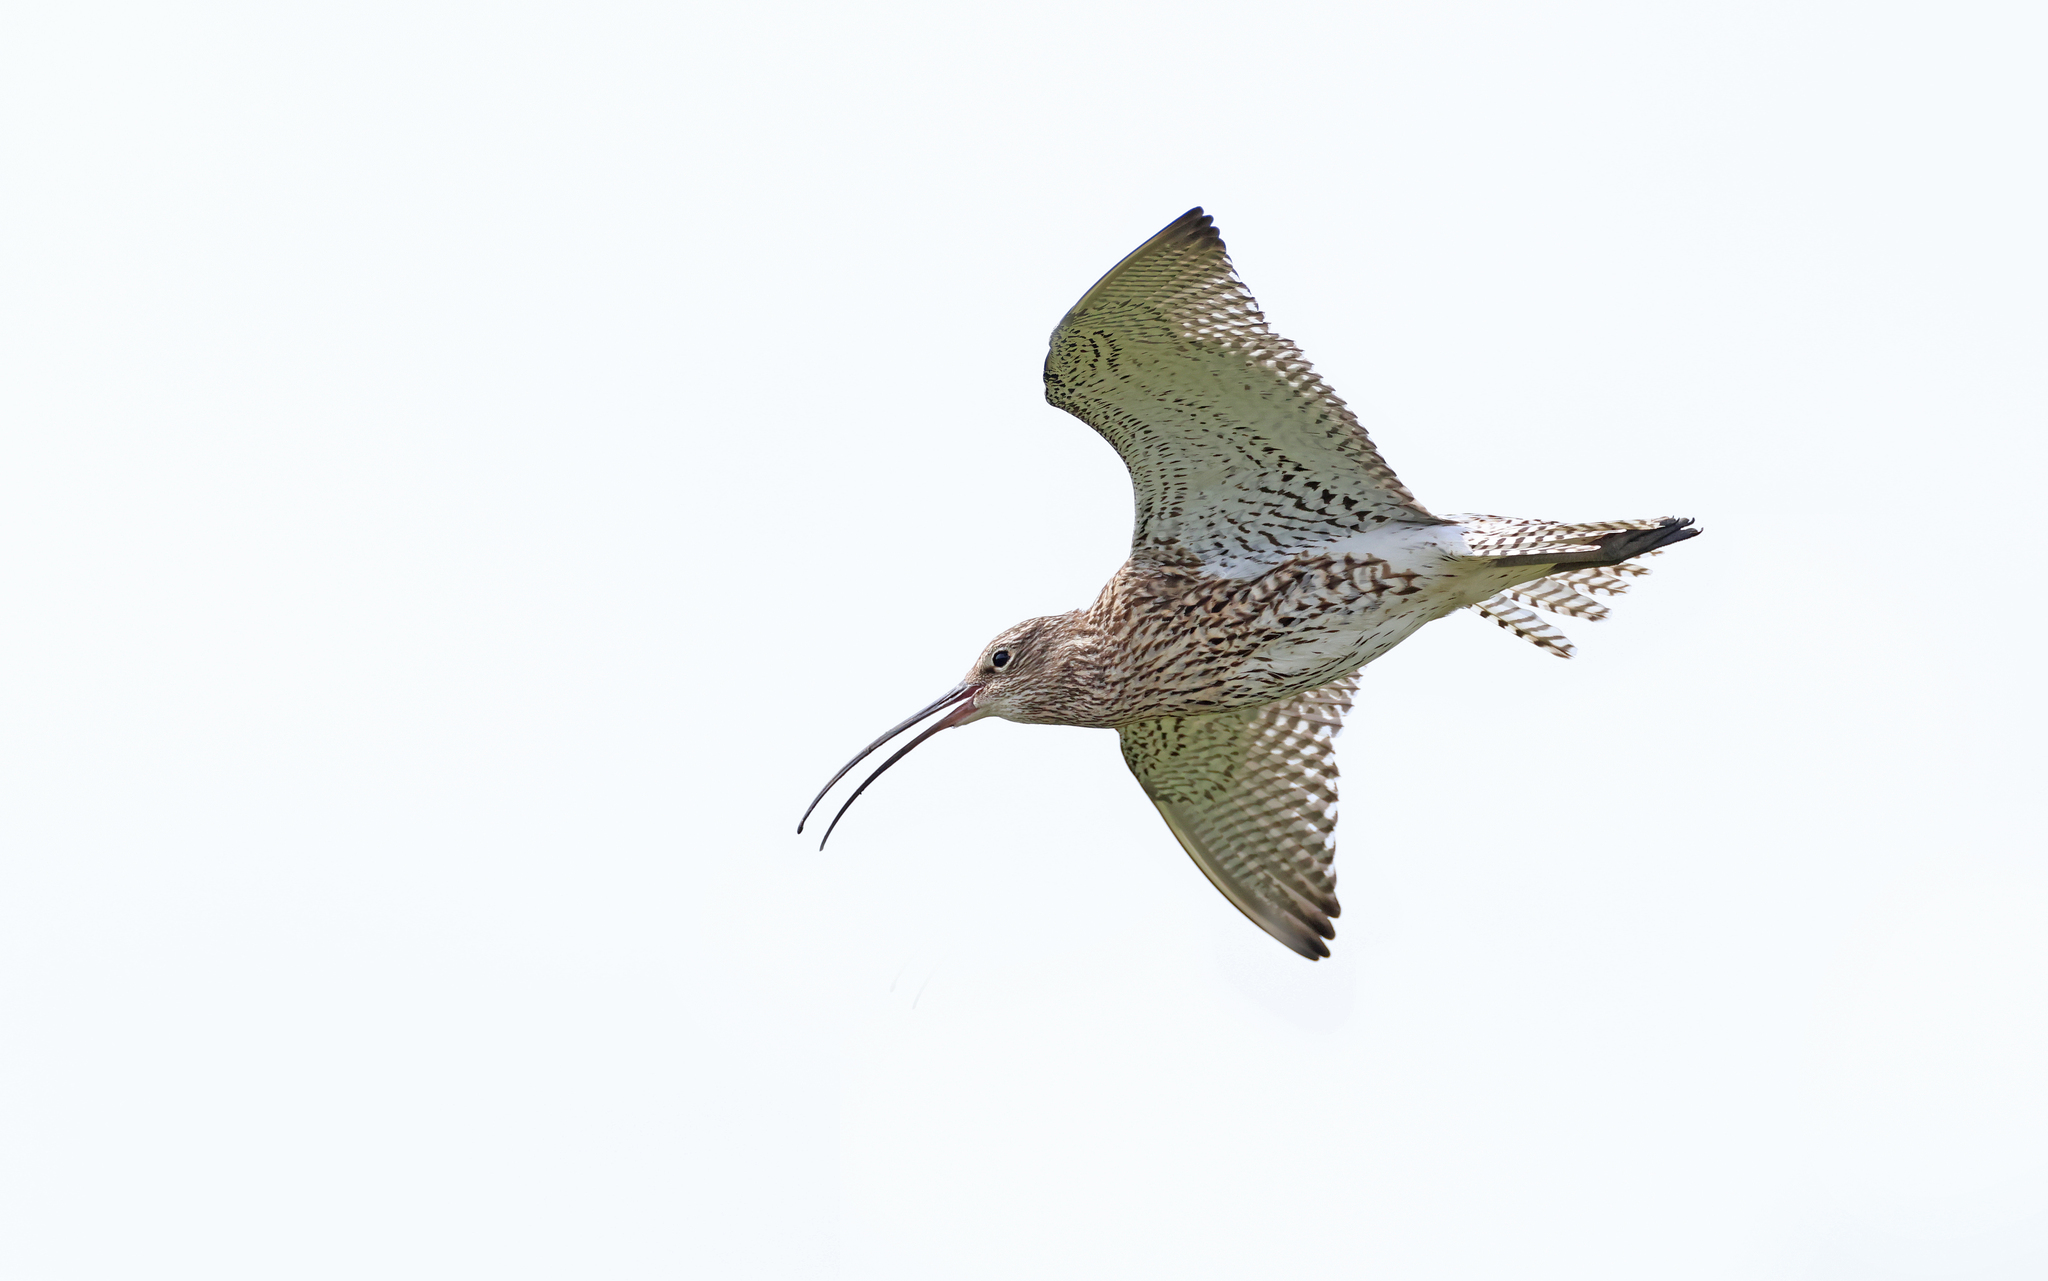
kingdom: Animalia
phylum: Chordata
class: Aves
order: Charadriiformes
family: Scolopacidae
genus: Numenius
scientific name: Numenius arquata
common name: Eurasian curlew
